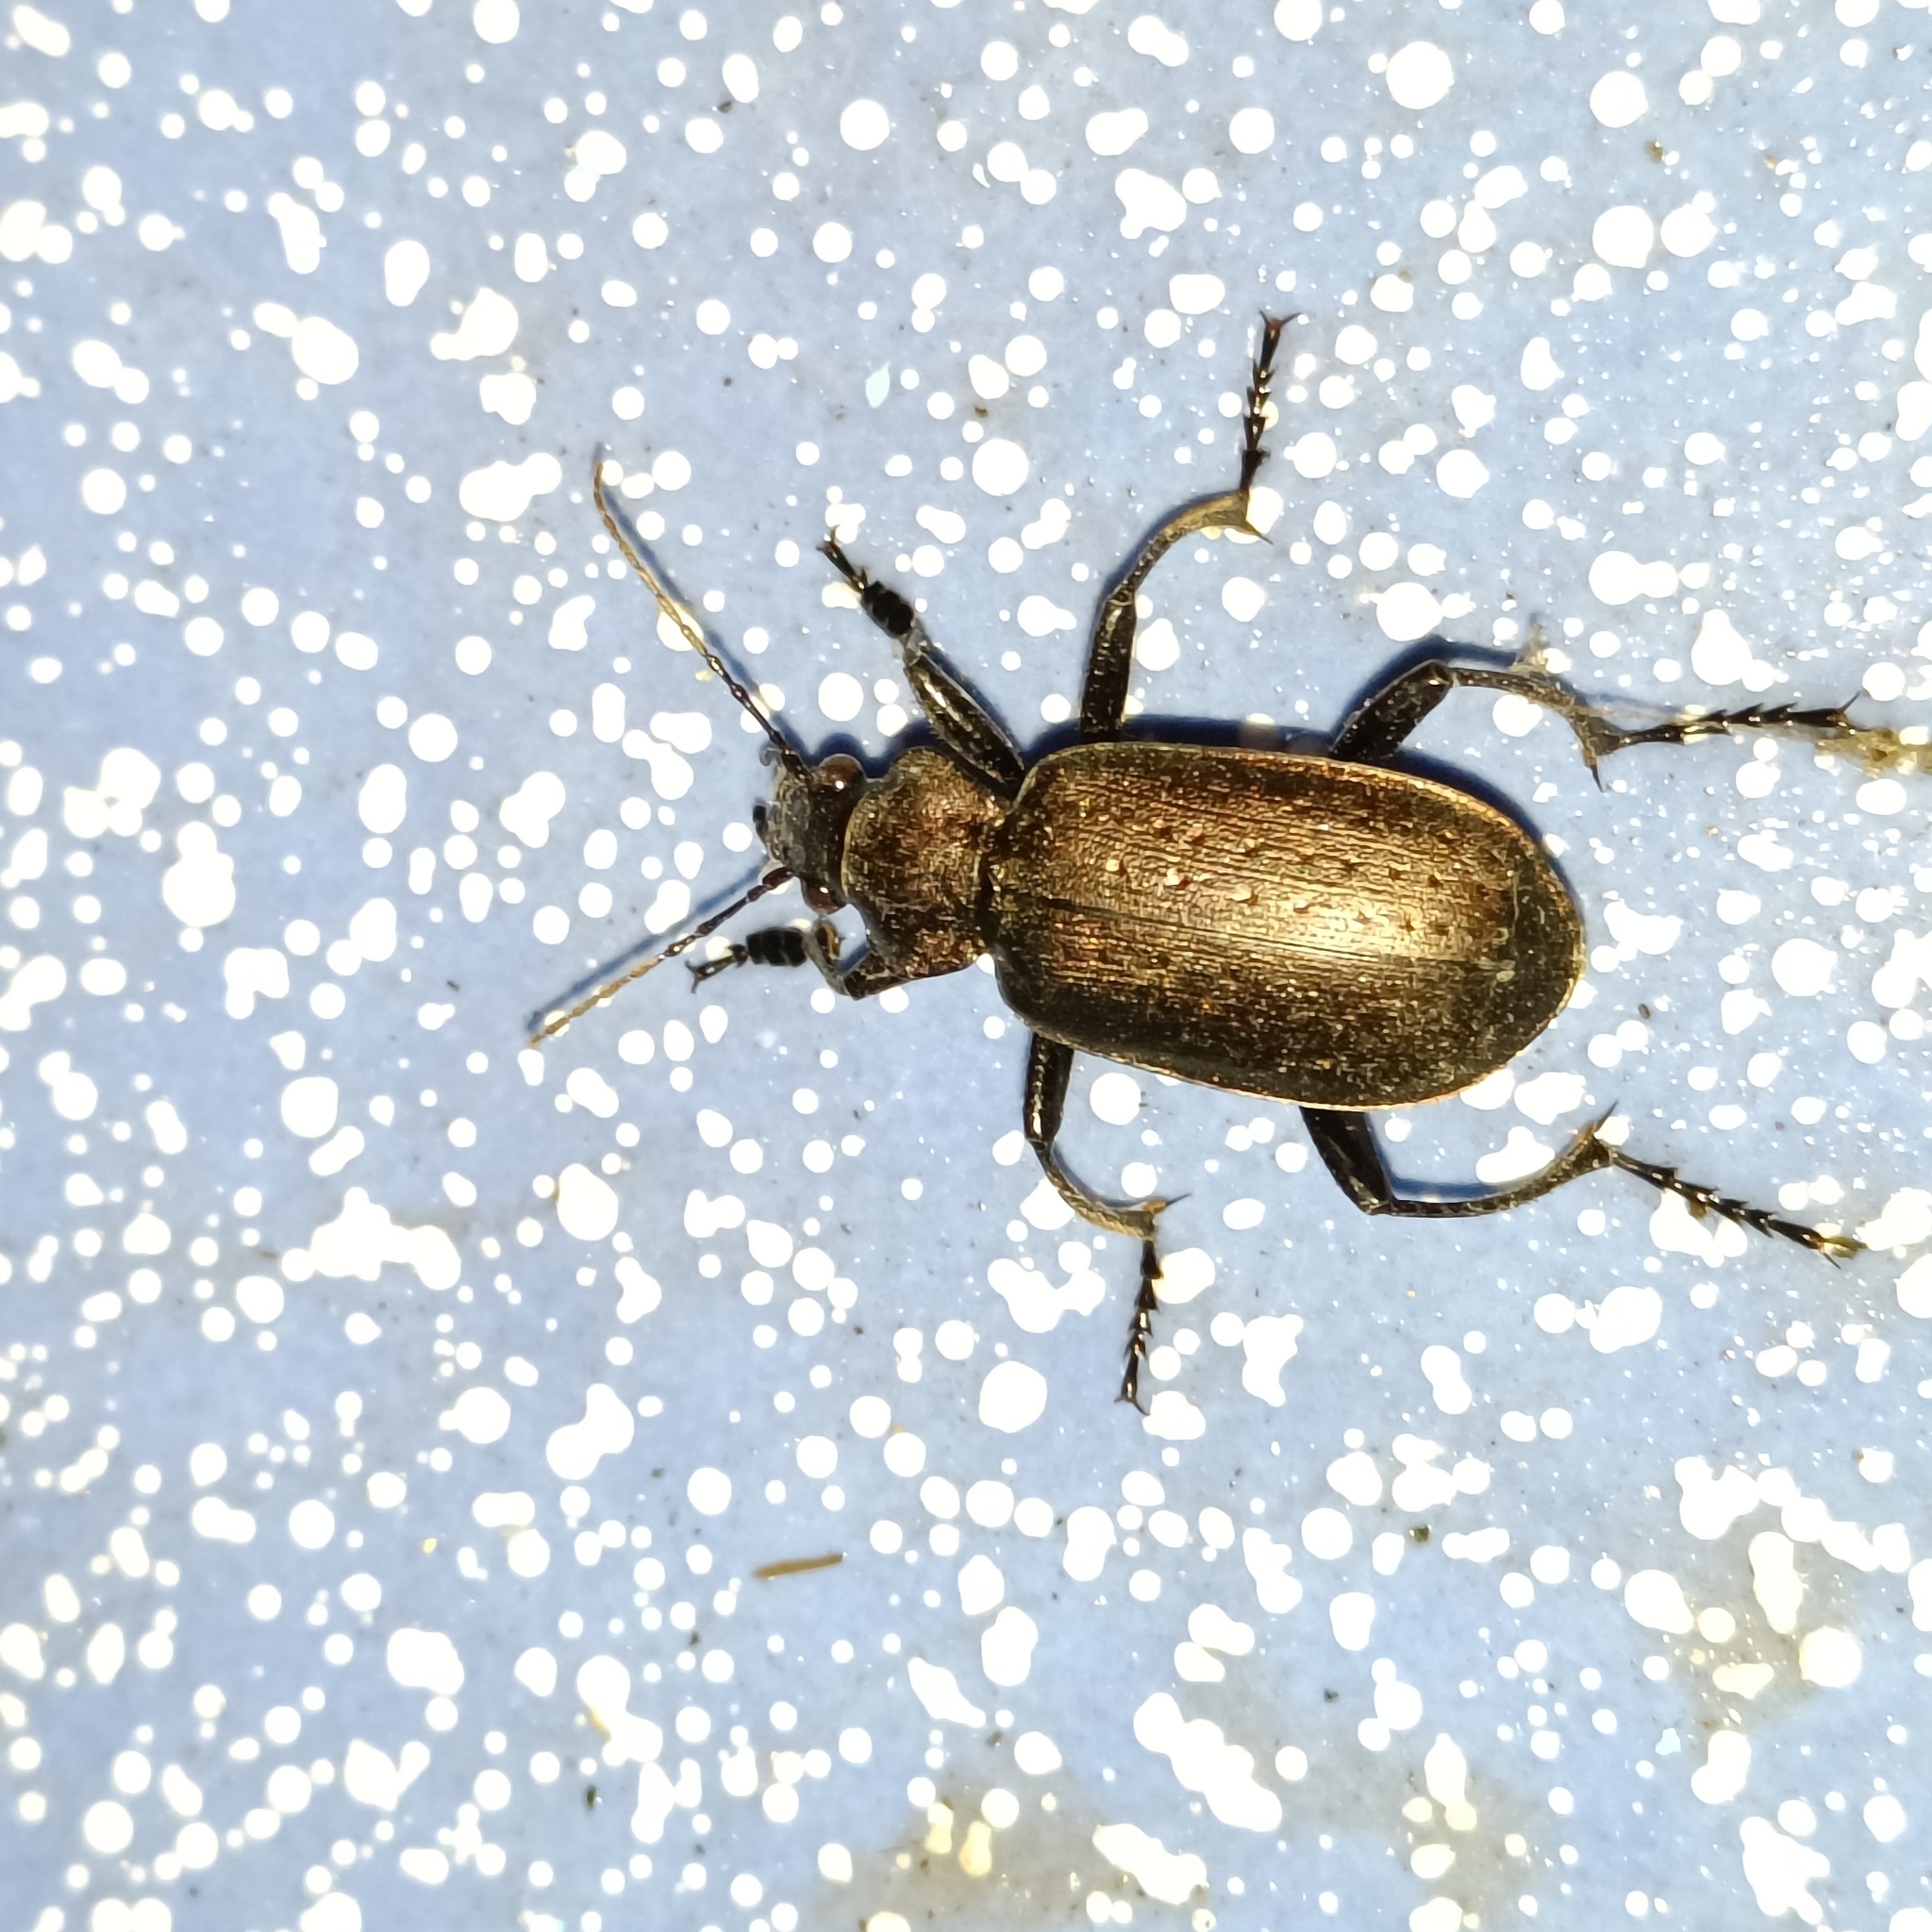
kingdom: Animalia
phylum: Arthropoda
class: Insecta
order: Coleoptera
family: Carabidae
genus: Calosoma
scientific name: Calosoma maderae
